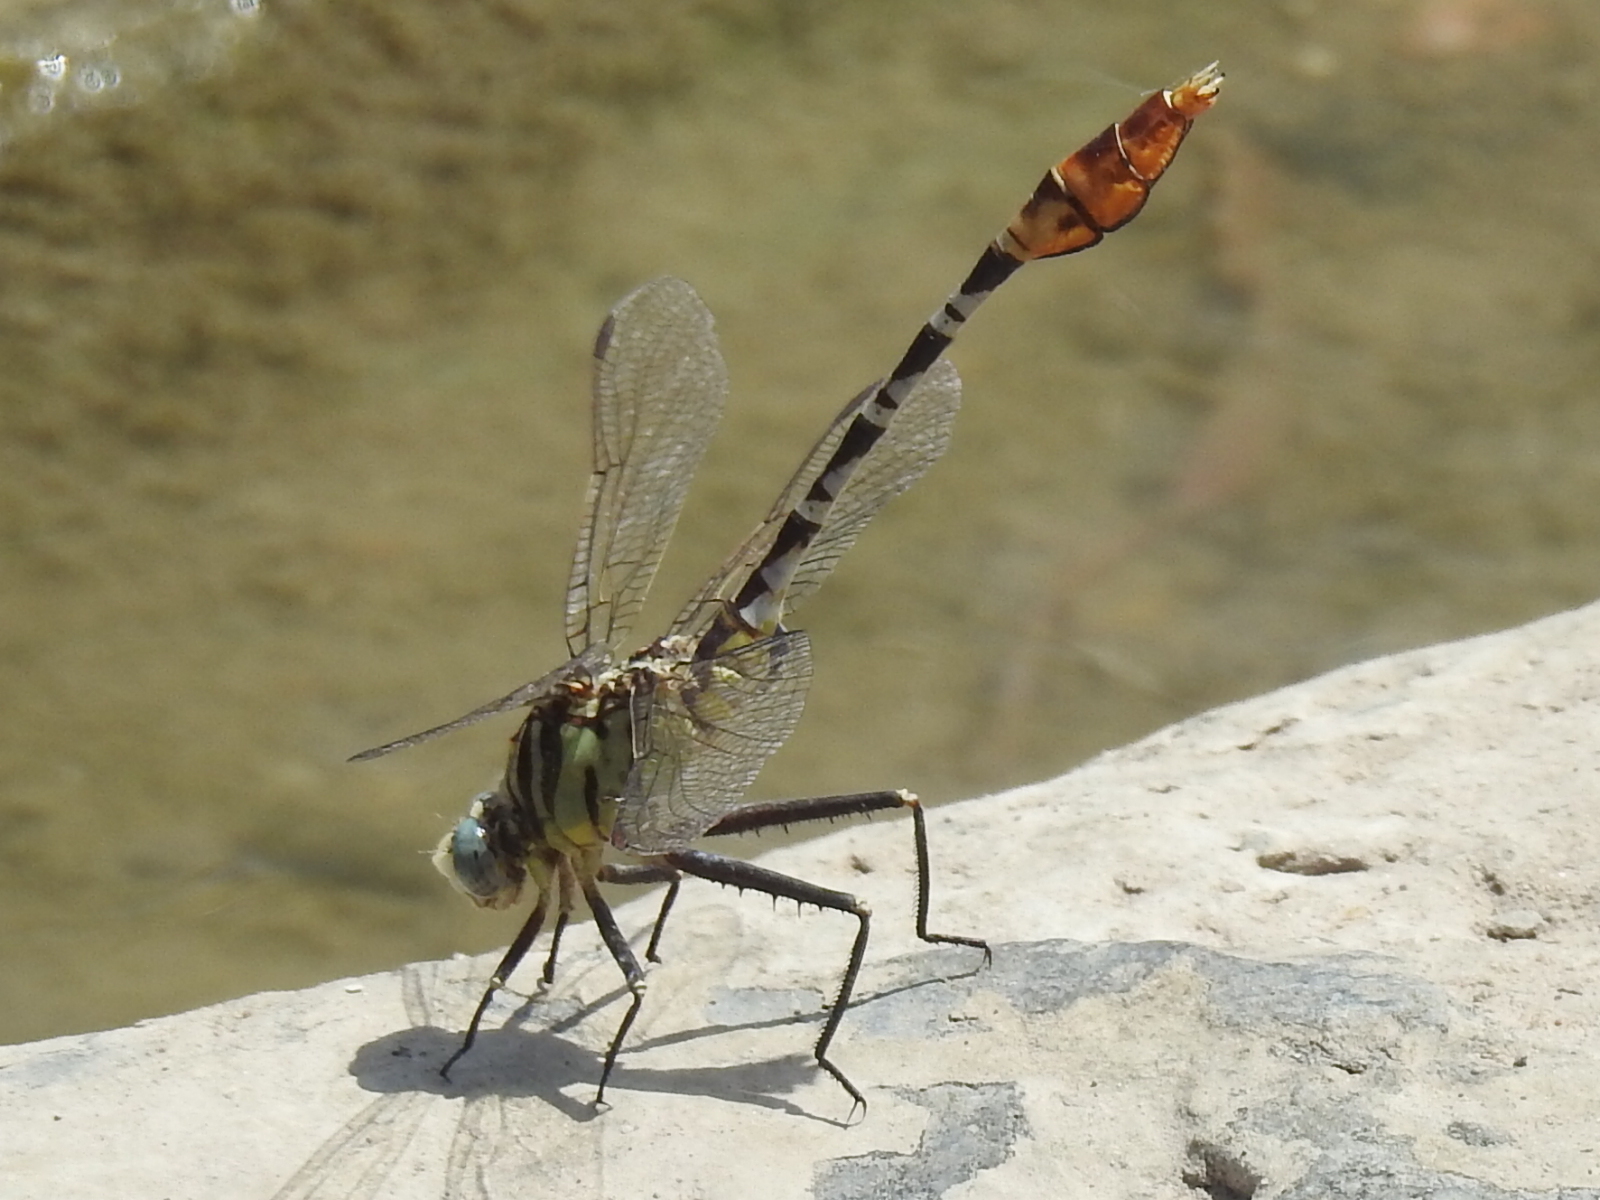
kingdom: Animalia
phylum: Arthropoda
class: Insecta
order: Odonata
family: Gomphidae
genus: Dromogomphus
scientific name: Dromogomphus spoliatus
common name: Flag-tailed spinyleg
